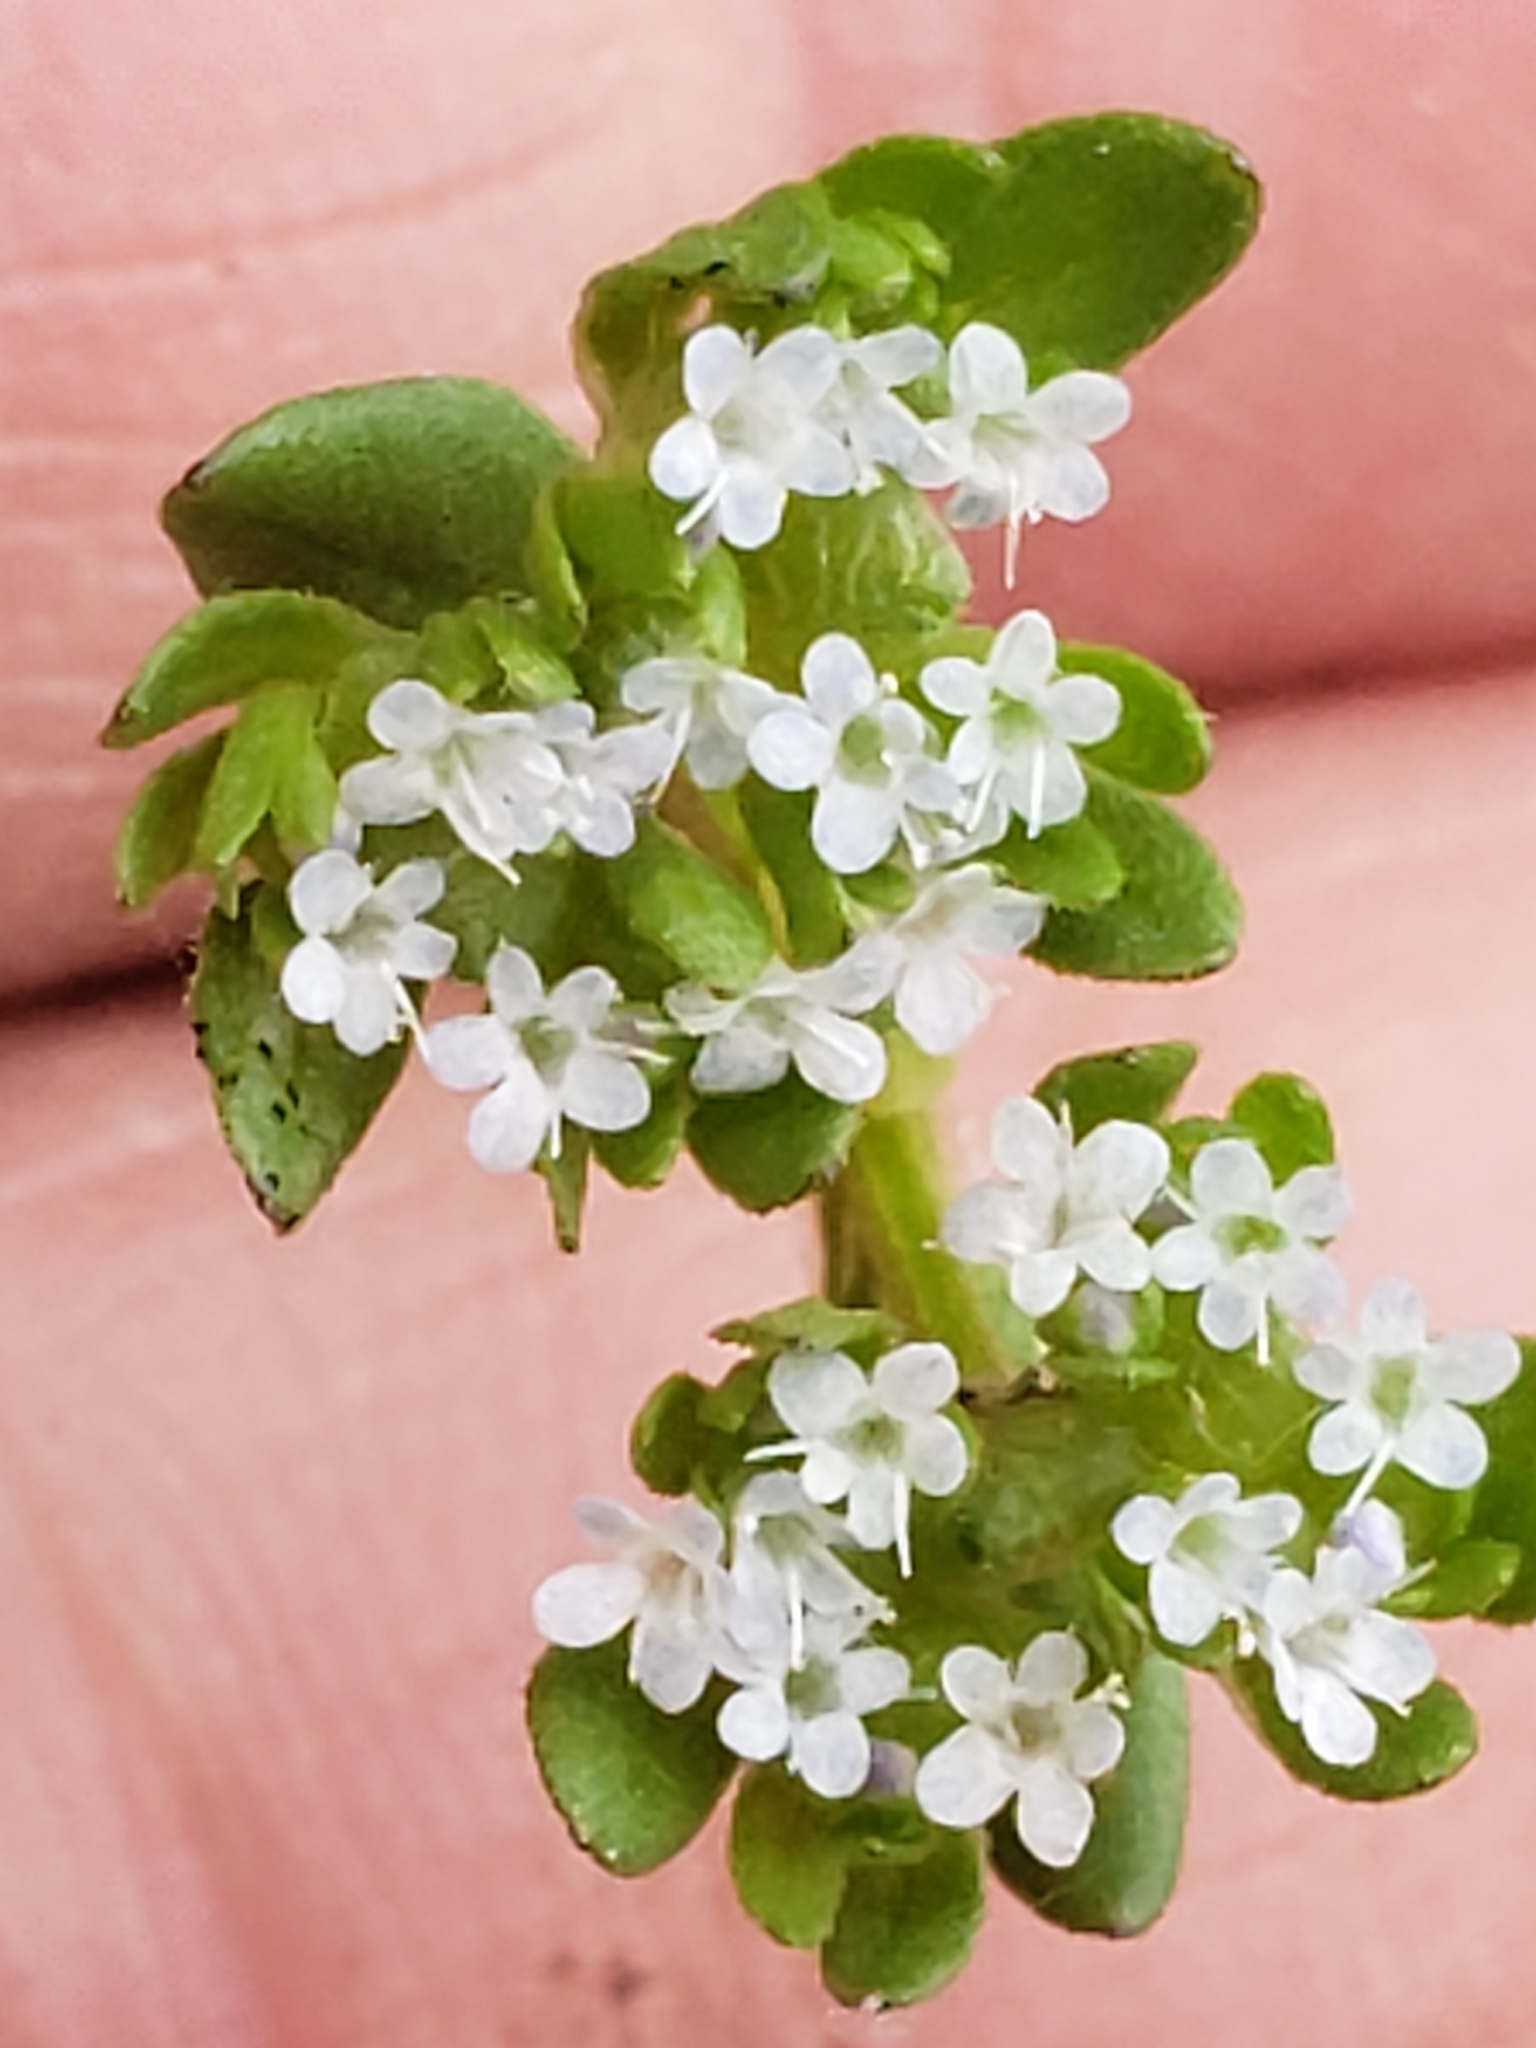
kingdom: Plantae
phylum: Tracheophyta
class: Magnoliopsida
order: Dipsacales
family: Caprifoliaceae
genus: Valerianella
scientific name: Valerianella locusta
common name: Common cornsalad
